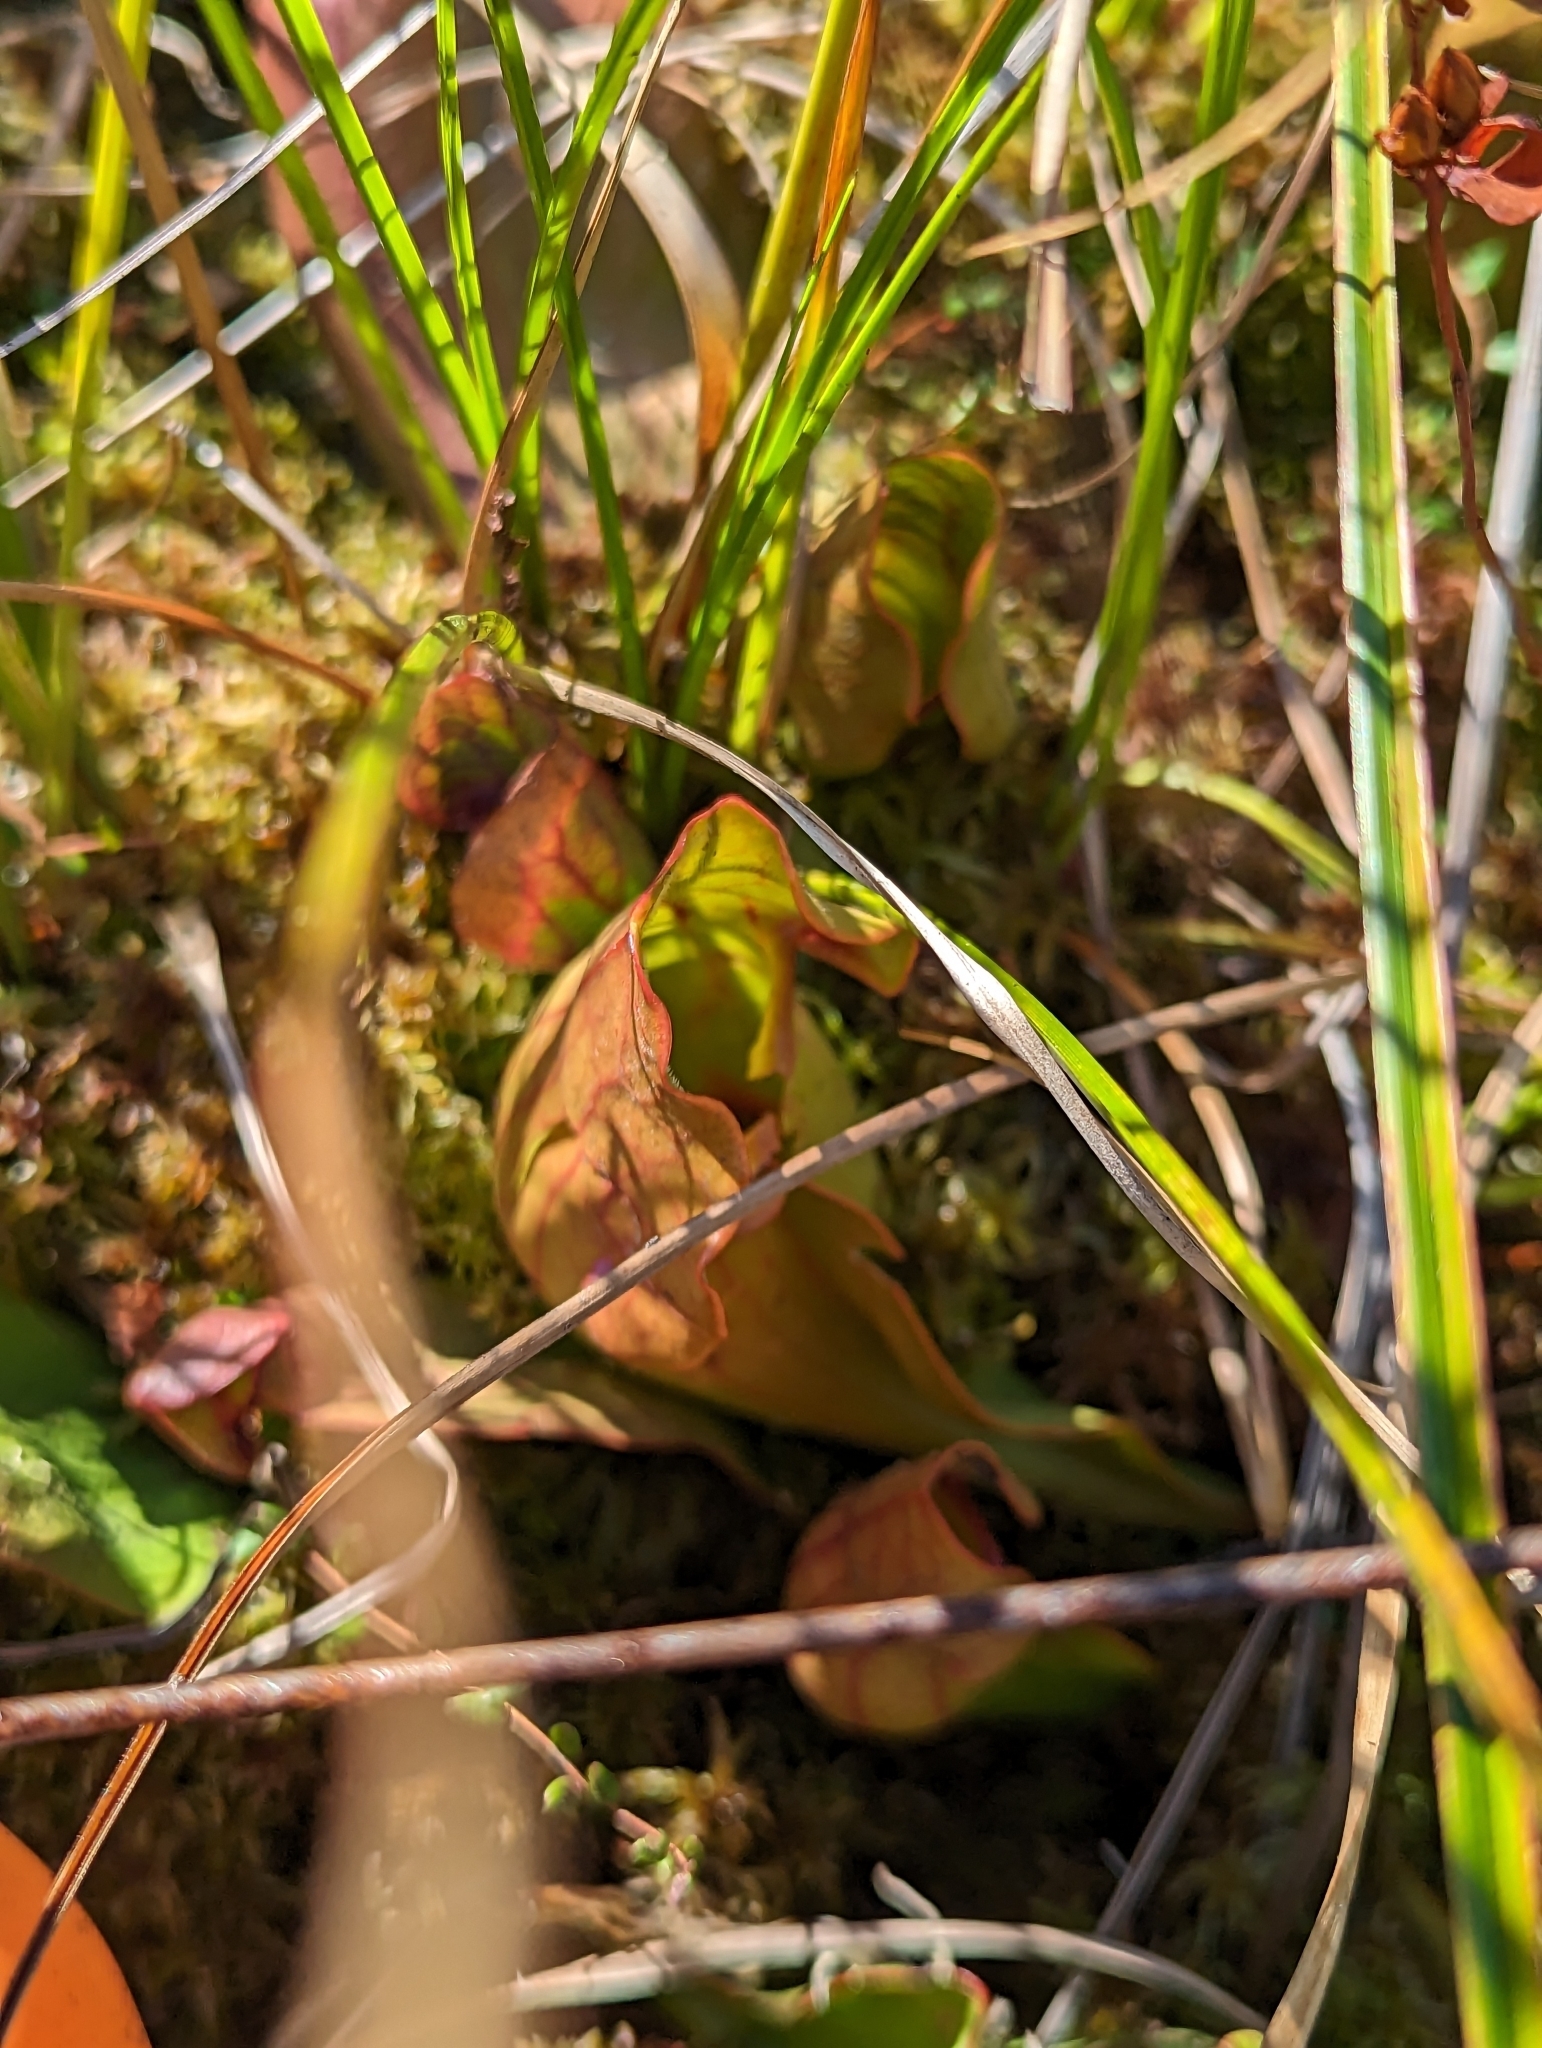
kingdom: Plantae
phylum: Tracheophyta
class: Magnoliopsida
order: Ericales
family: Sarraceniaceae
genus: Sarracenia
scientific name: Sarracenia purpurea
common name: Pitcherplant
